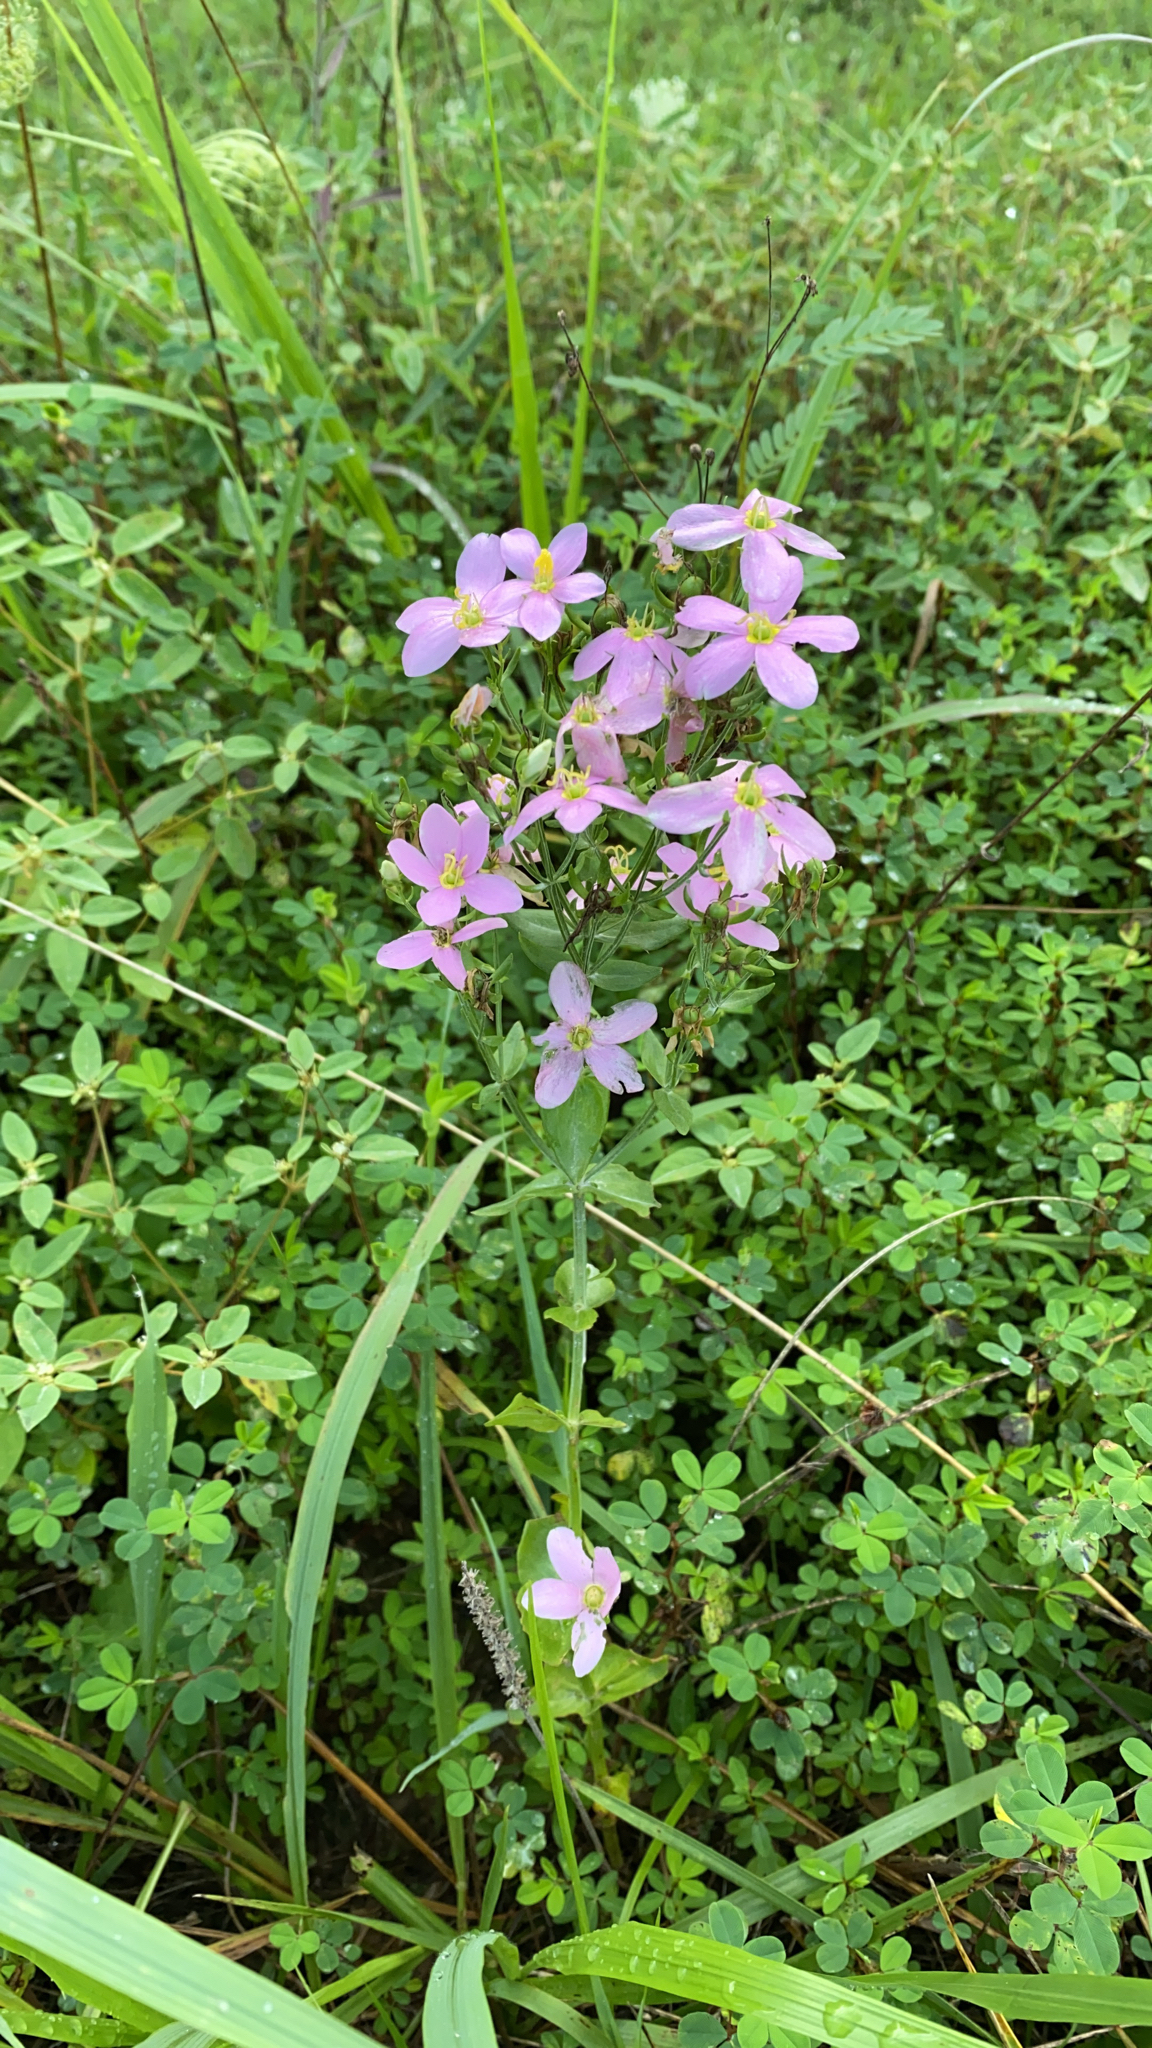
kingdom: Plantae
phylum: Tracheophyta
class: Magnoliopsida
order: Gentianales
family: Gentianaceae
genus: Sabatia
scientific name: Sabatia angularis
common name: Rose-pink
